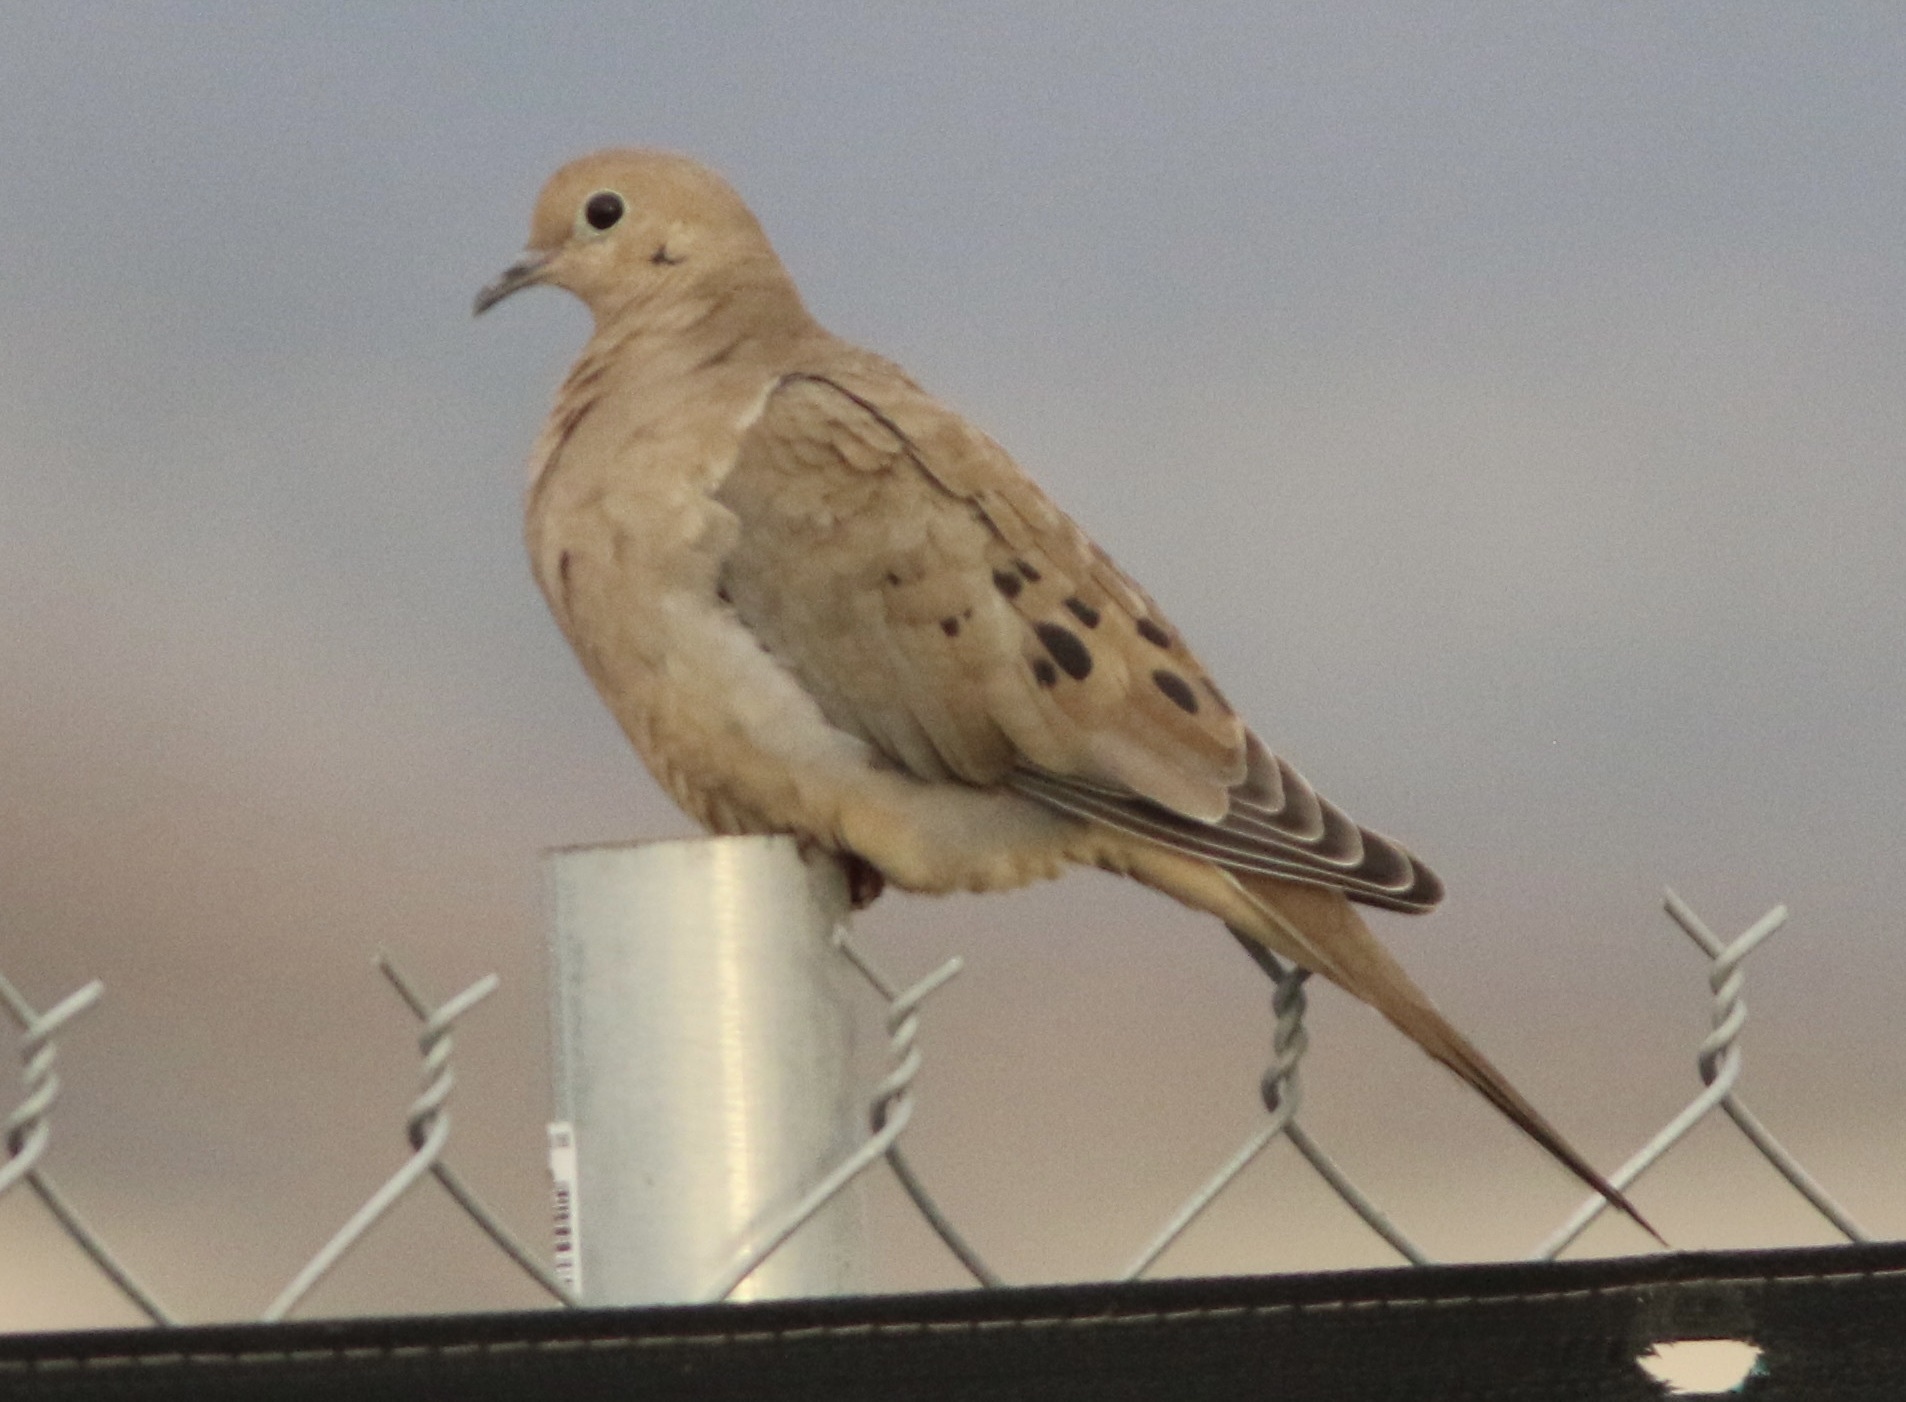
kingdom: Animalia
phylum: Chordata
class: Aves
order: Columbiformes
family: Columbidae
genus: Zenaida
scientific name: Zenaida macroura
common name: Mourning dove
